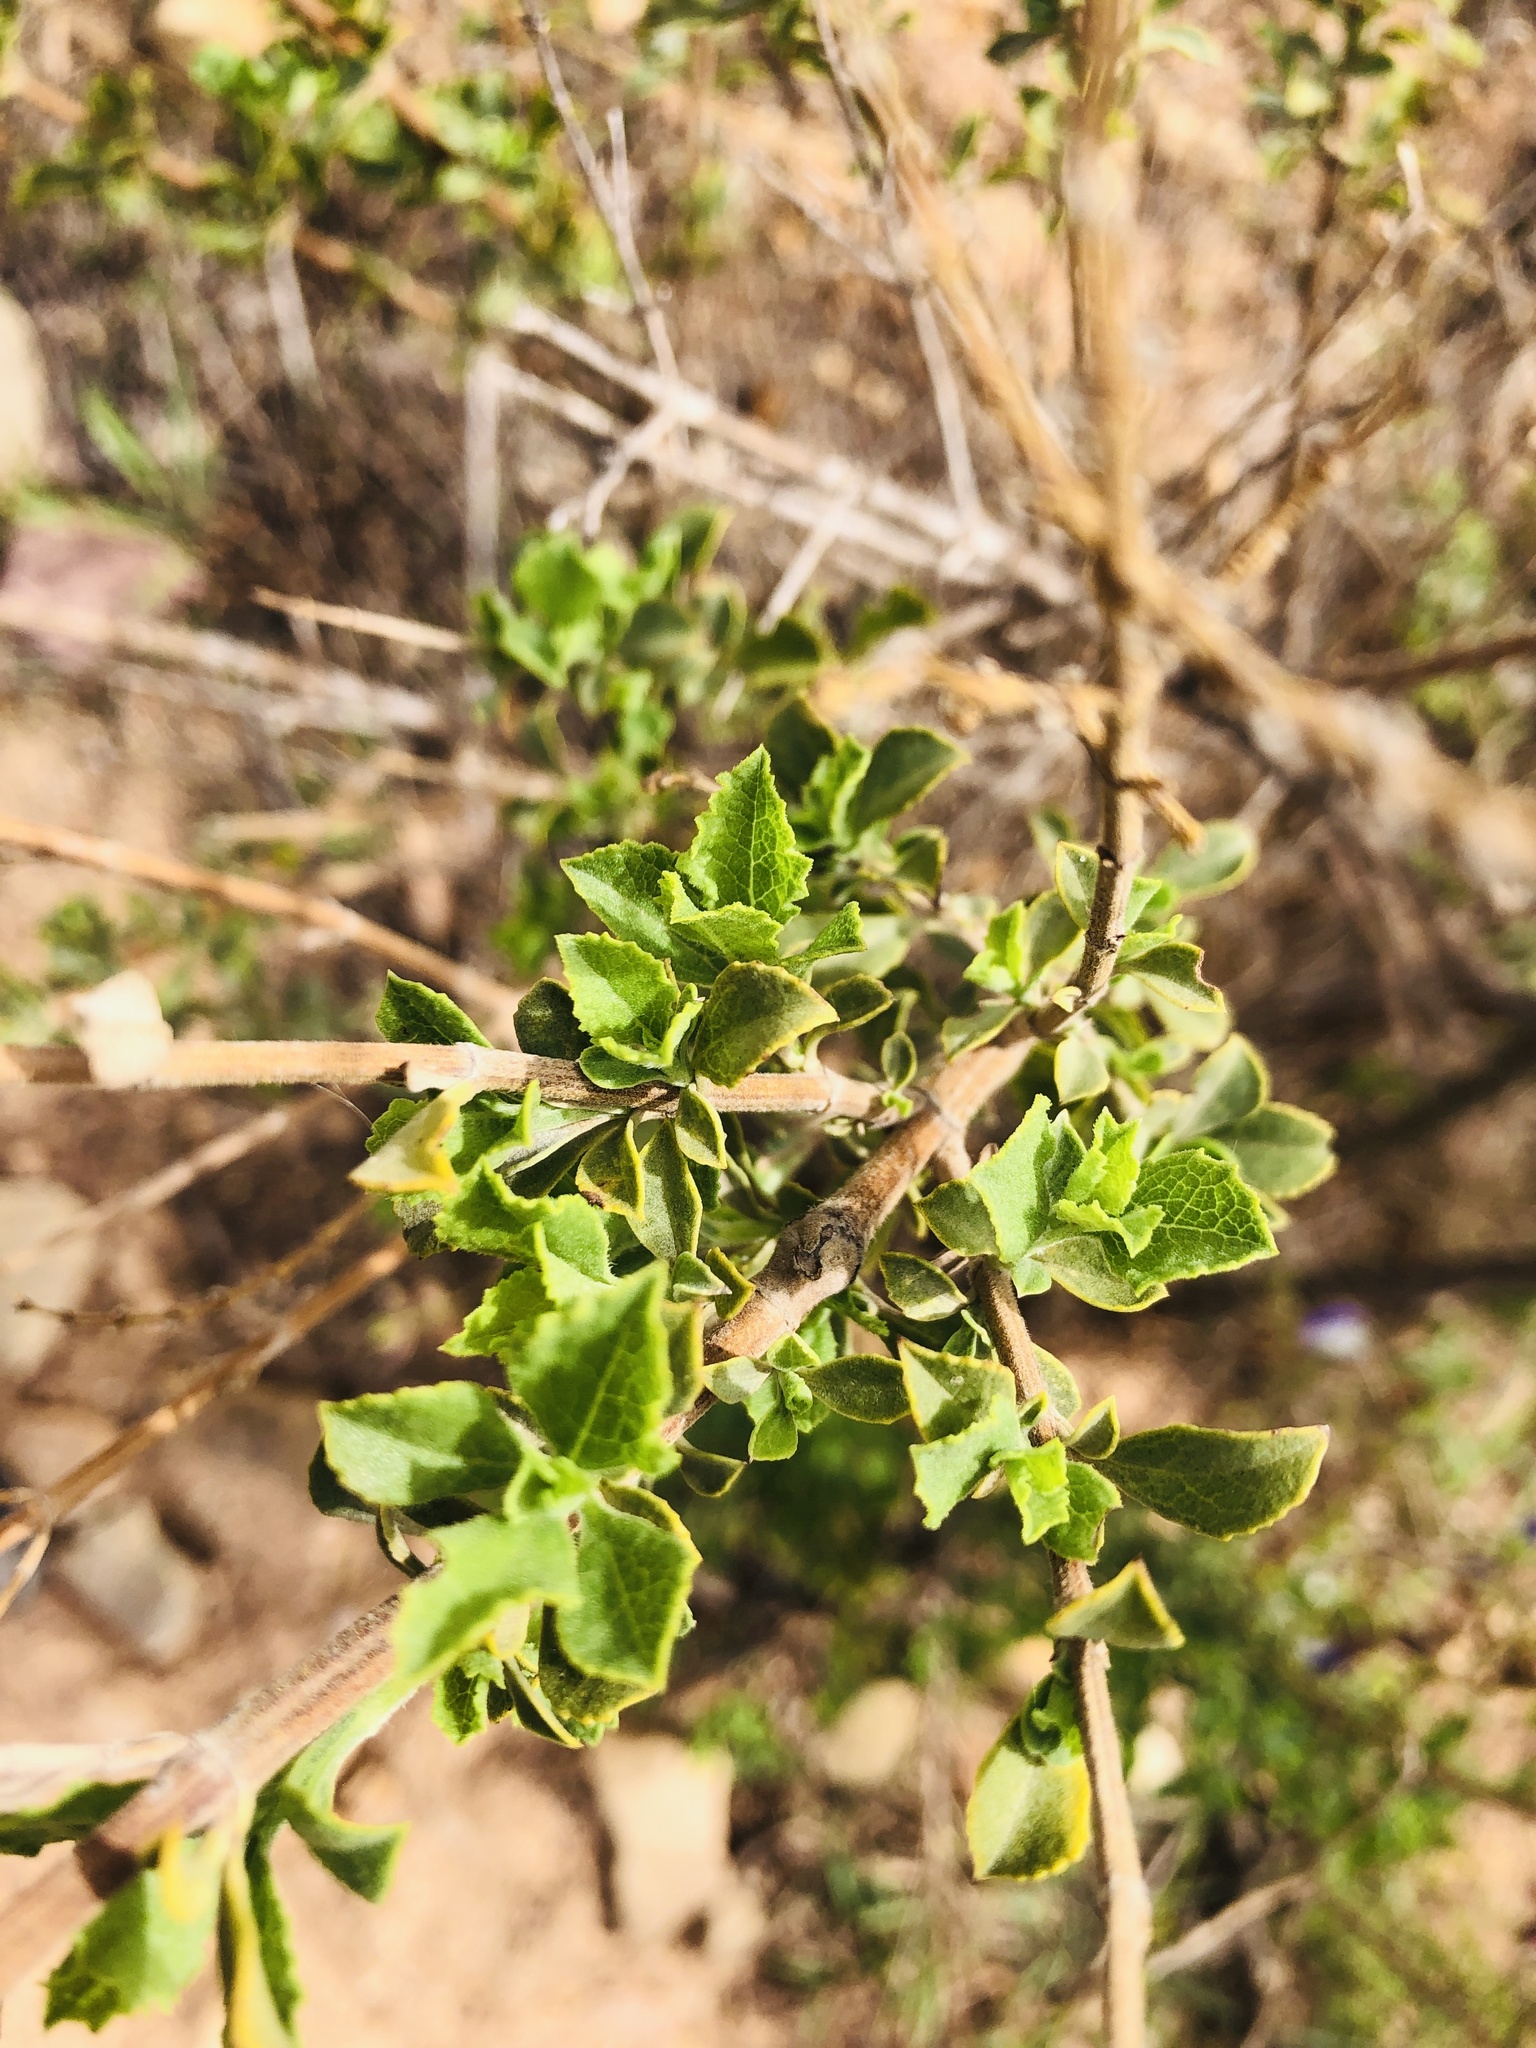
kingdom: Plantae
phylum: Tracheophyta
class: Magnoliopsida
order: Lamiales
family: Lamiaceae
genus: Salvia
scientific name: Salvia chamelaeagnea
